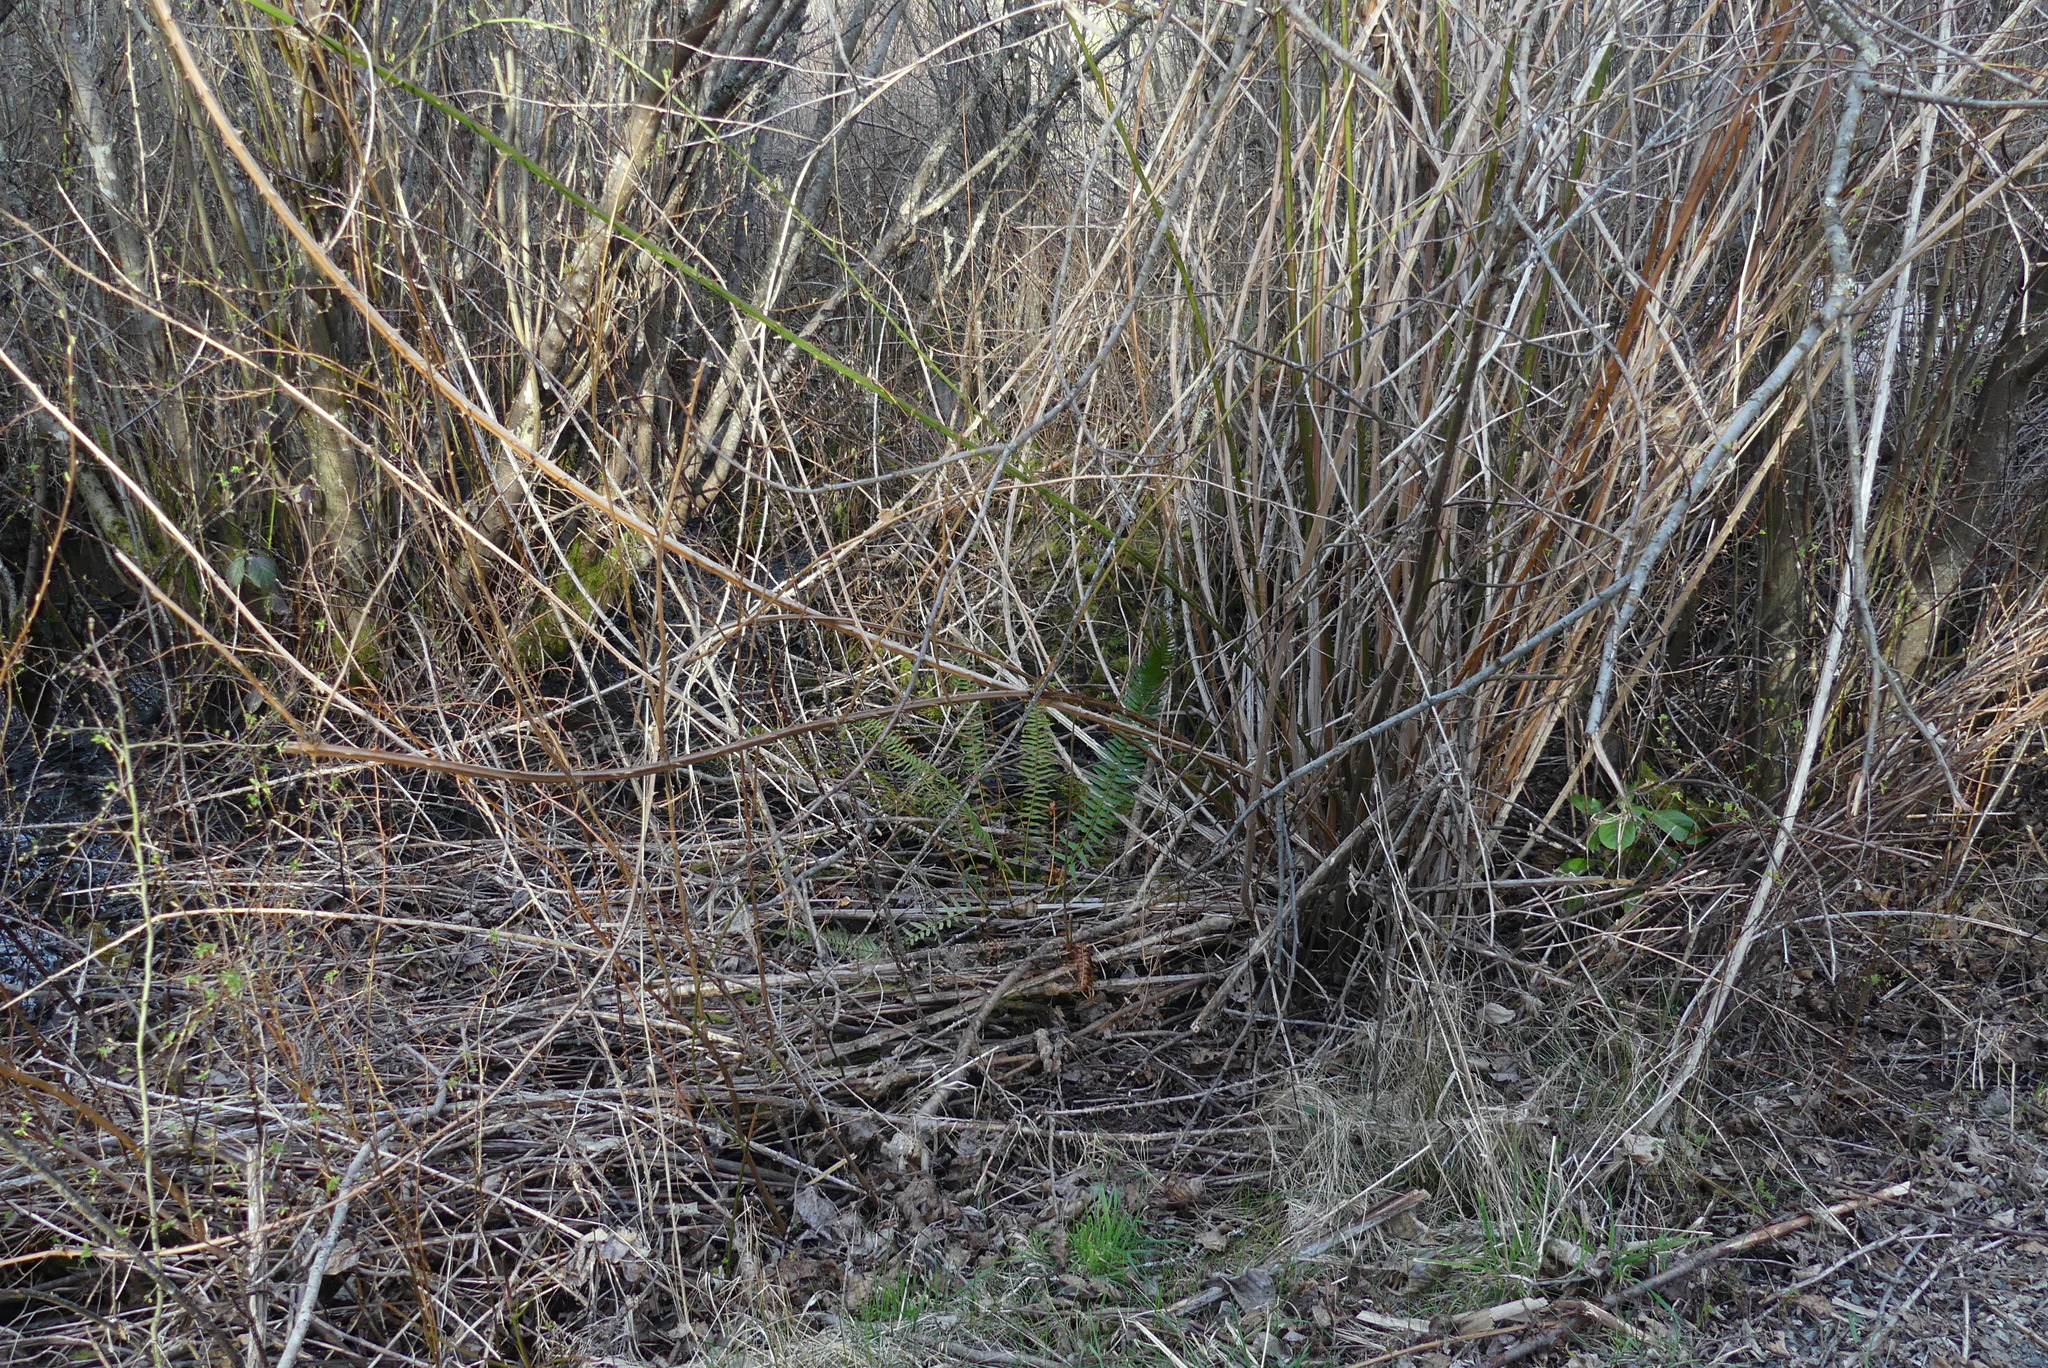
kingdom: Plantae
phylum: Tracheophyta
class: Polypodiopsida
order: Polypodiales
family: Dryopteridaceae
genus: Polystichum
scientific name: Polystichum munitum
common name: Western sword-fern
